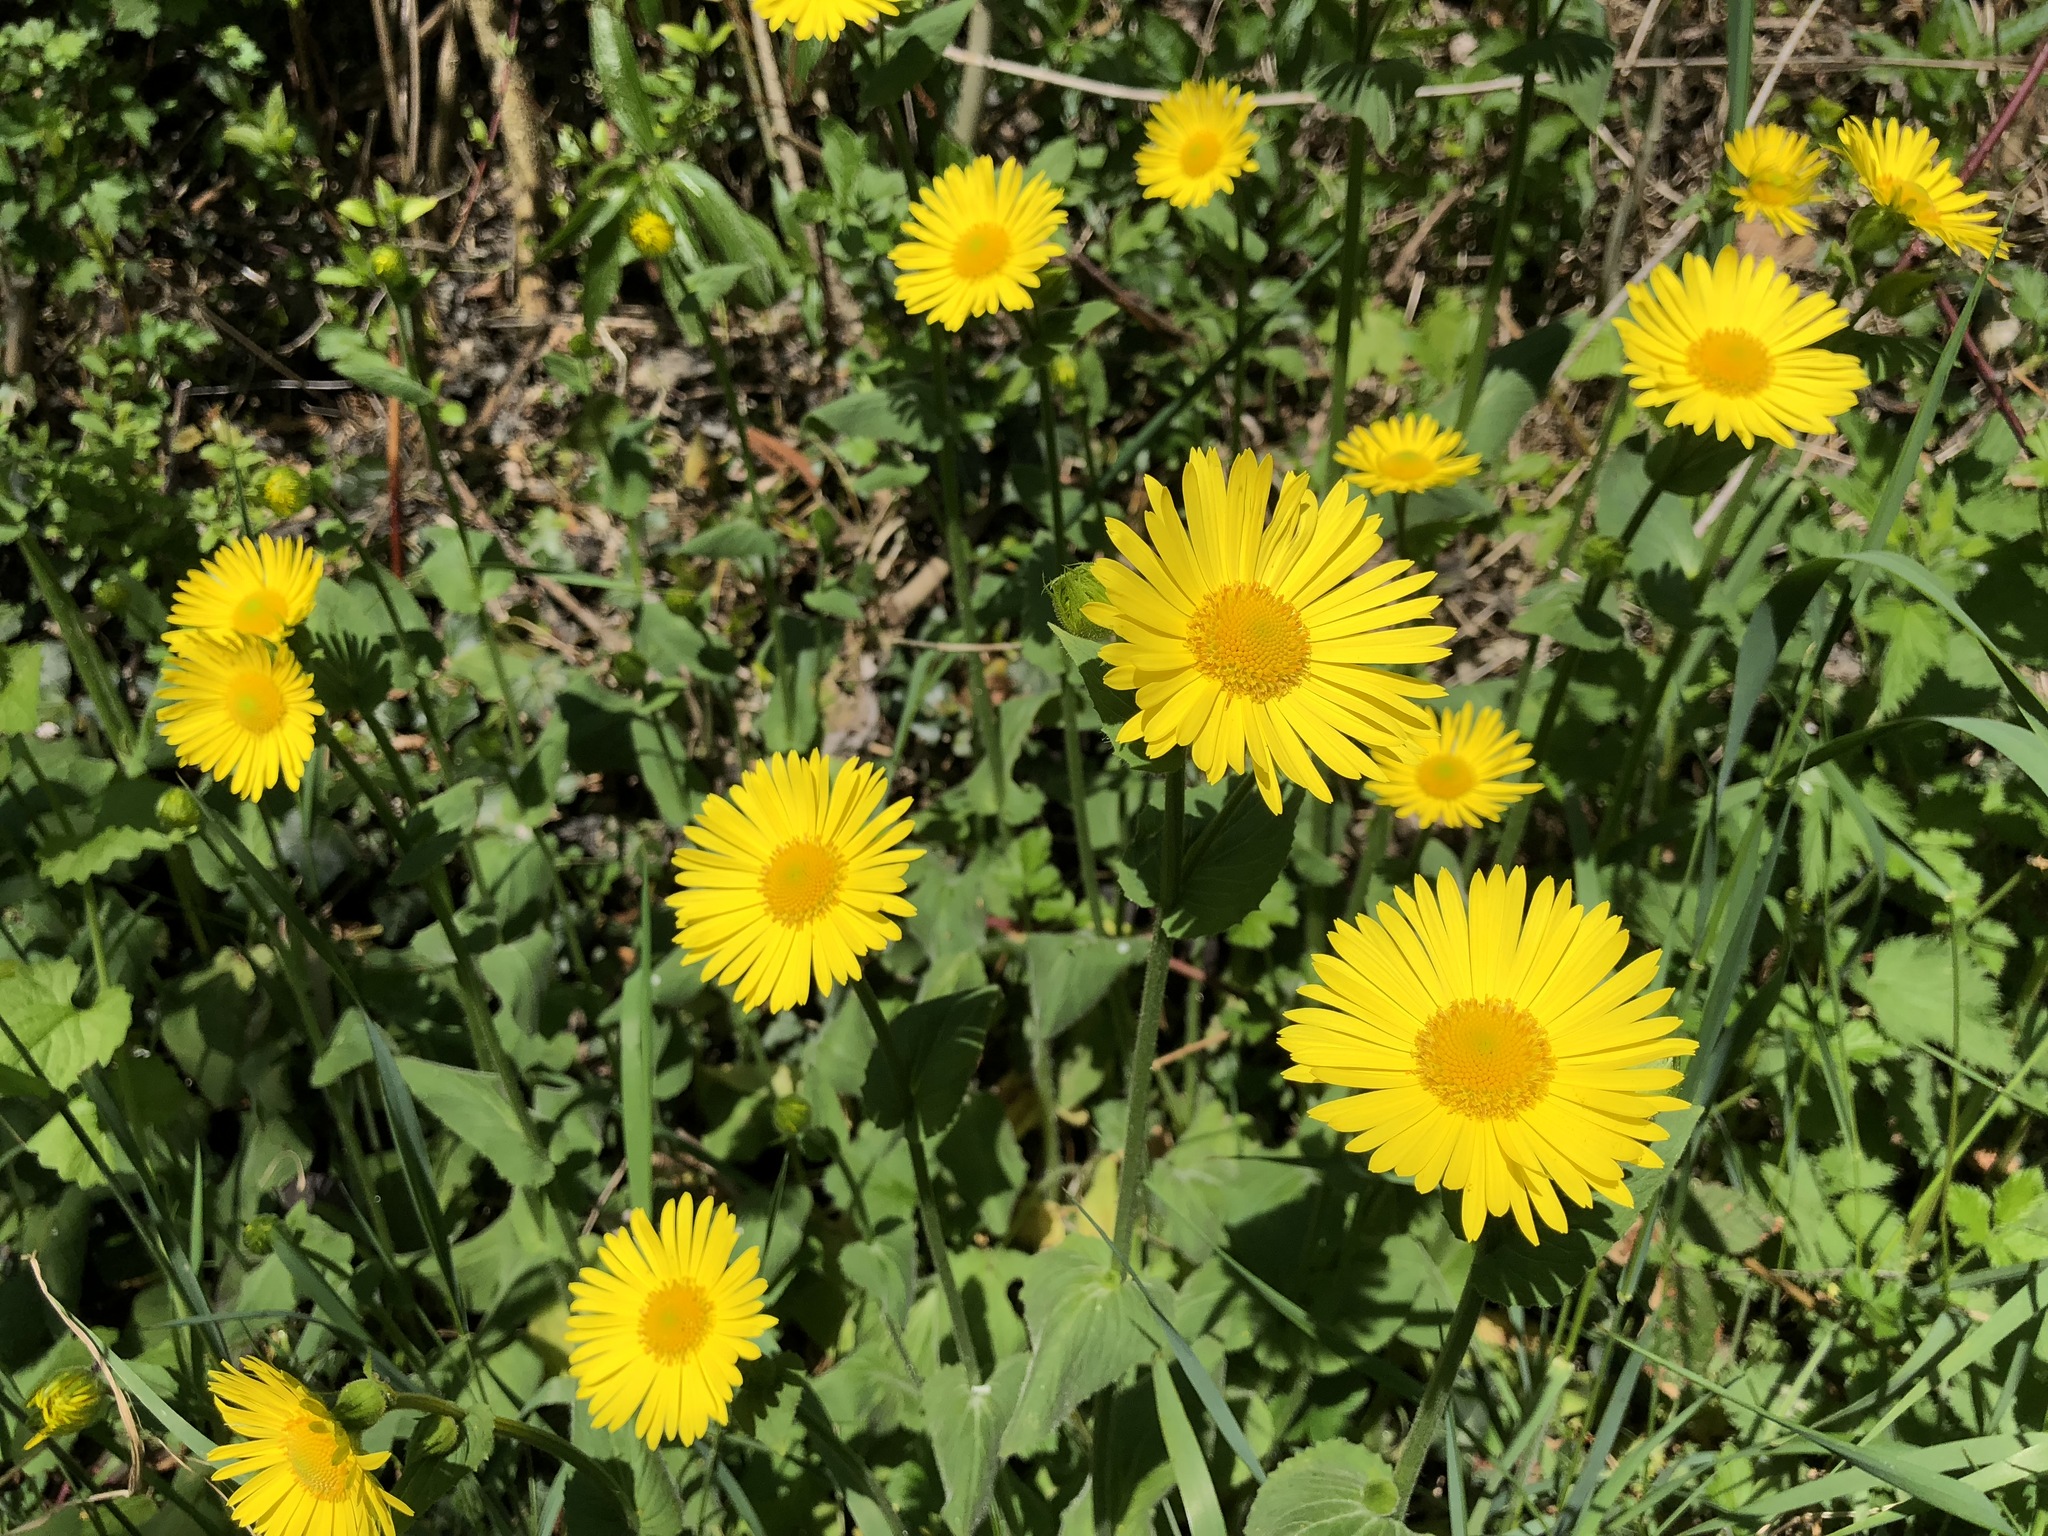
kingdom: Plantae
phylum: Tracheophyta
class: Magnoliopsida
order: Asterales
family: Asteraceae
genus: Doronicum
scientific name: Doronicum pardalianches
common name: Leopard's-bane
